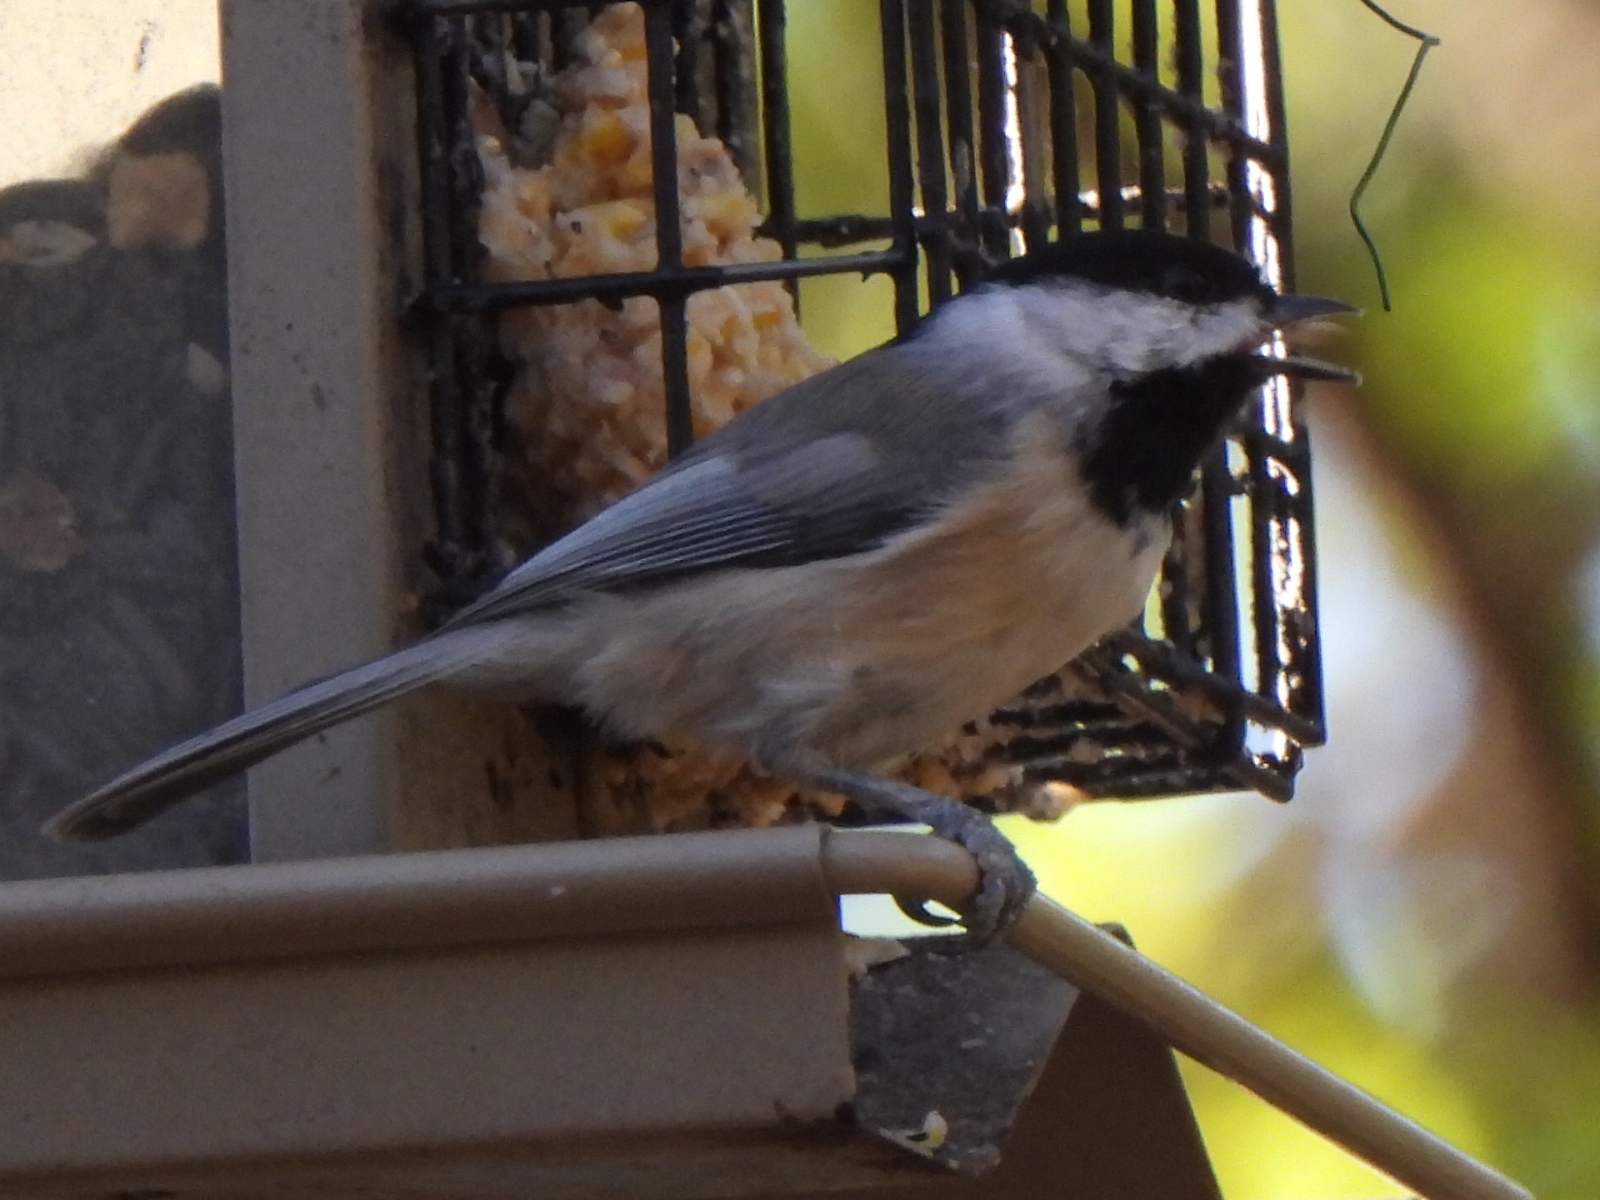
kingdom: Animalia
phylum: Chordata
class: Aves
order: Passeriformes
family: Paridae
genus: Poecile
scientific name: Poecile carolinensis
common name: Carolina chickadee
